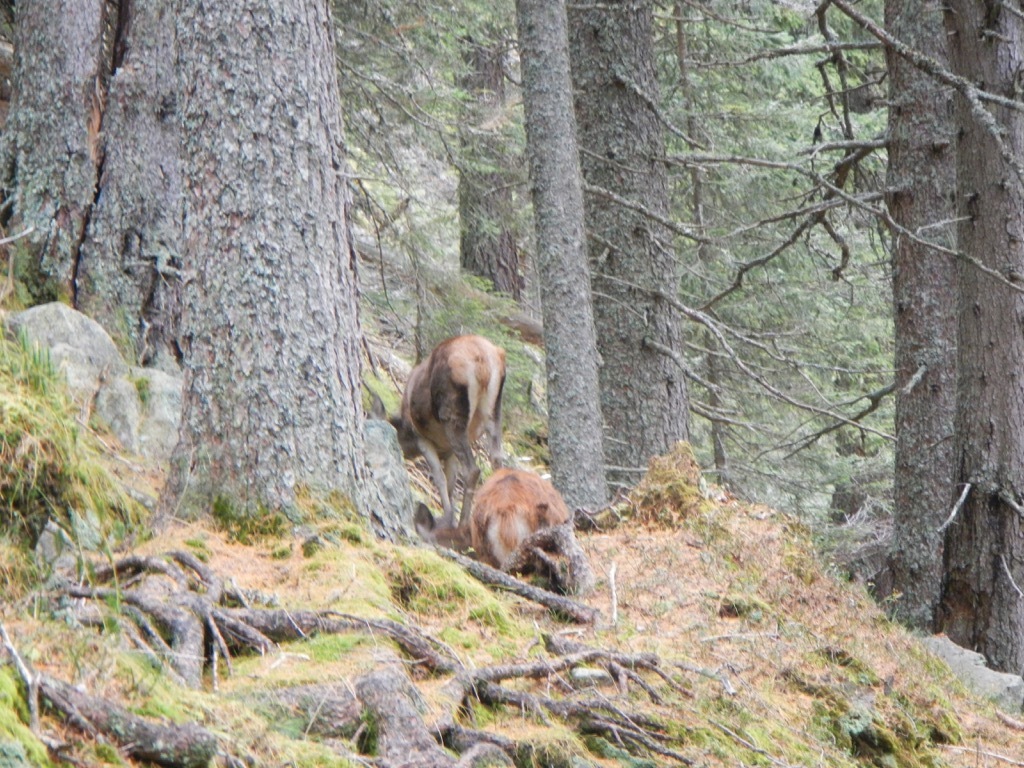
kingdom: Animalia
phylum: Chordata
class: Mammalia
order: Artiodactyla
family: Cervidae
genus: Cervus
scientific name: Cervus elaphus
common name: Red deer
